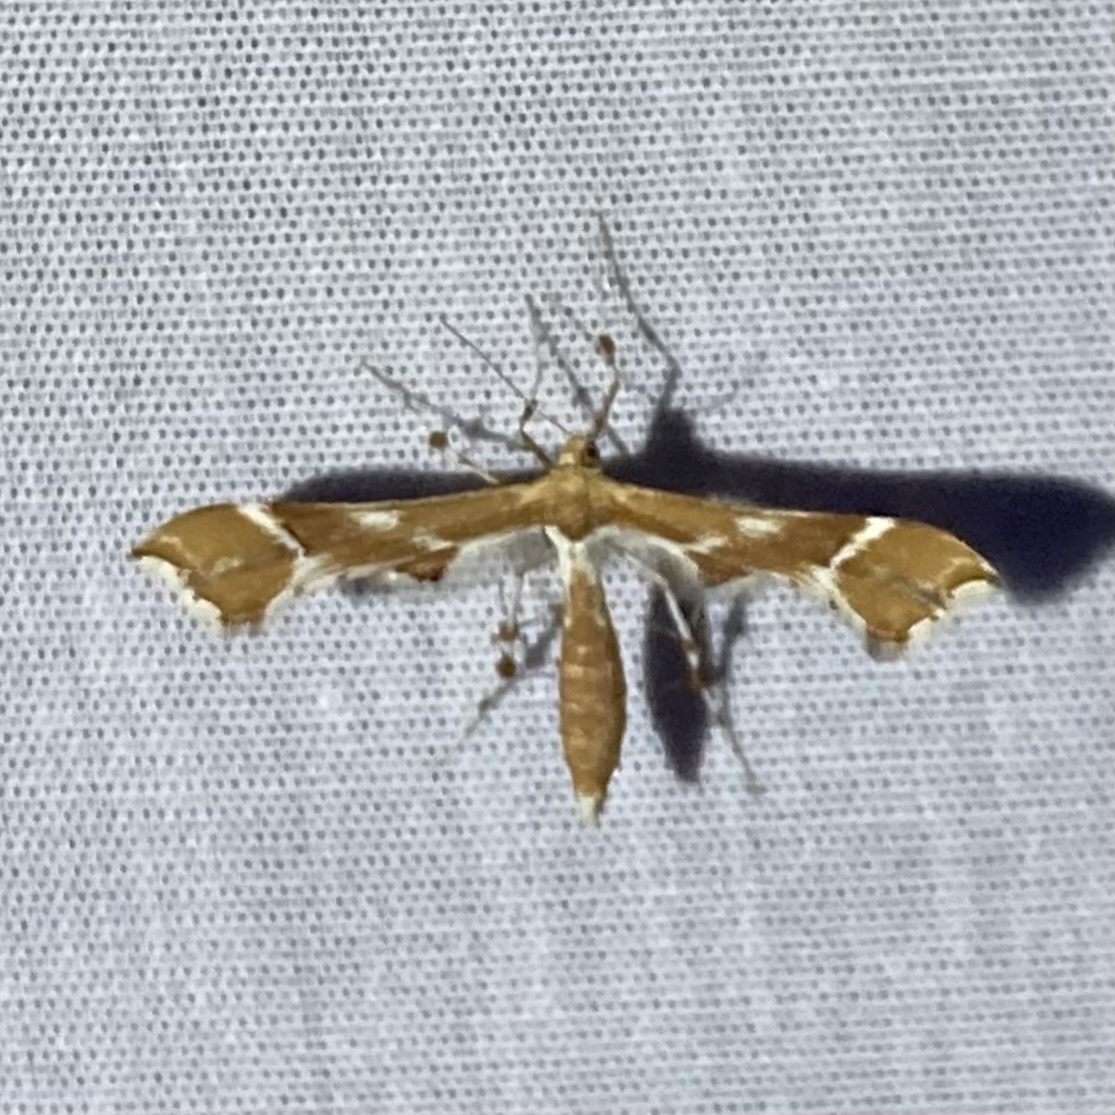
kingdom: Animalia
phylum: Arthropoda
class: Insecta
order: Lepidoptera
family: Pterophoridae
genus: Cnaemidophorus
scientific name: Cnaemidophorus rhododactyla
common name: Rose plume
